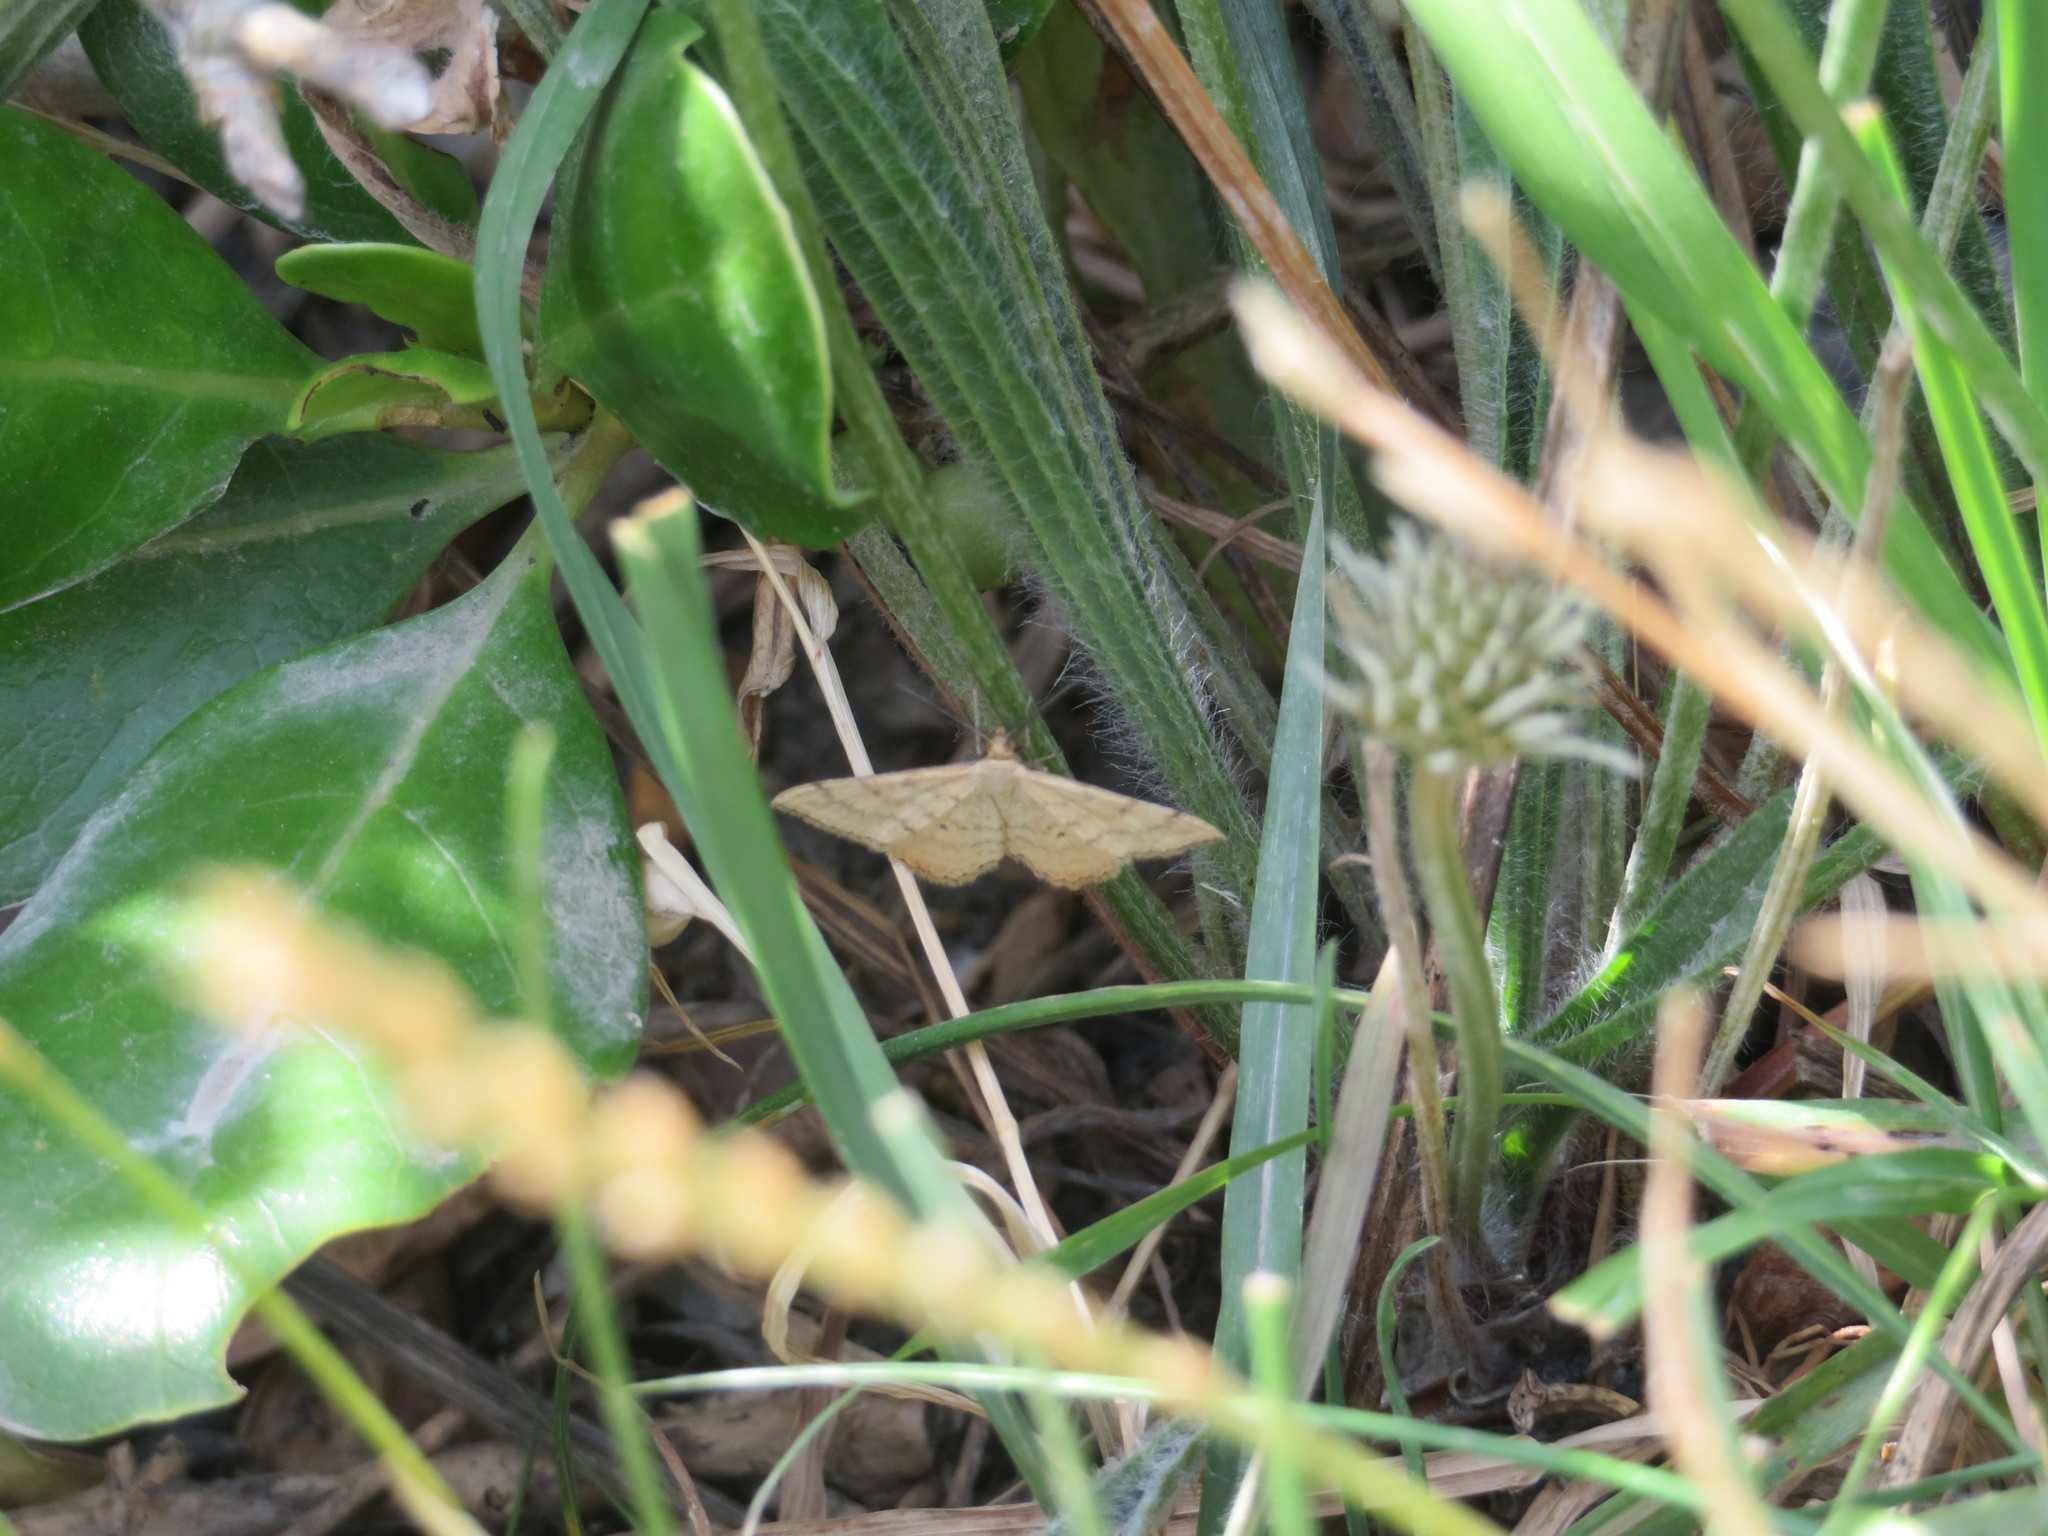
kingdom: Animalia
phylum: Arthropoda
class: Insecta
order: Lepidoptera
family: Geometridae
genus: Scopula
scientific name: Scopula rubraria
